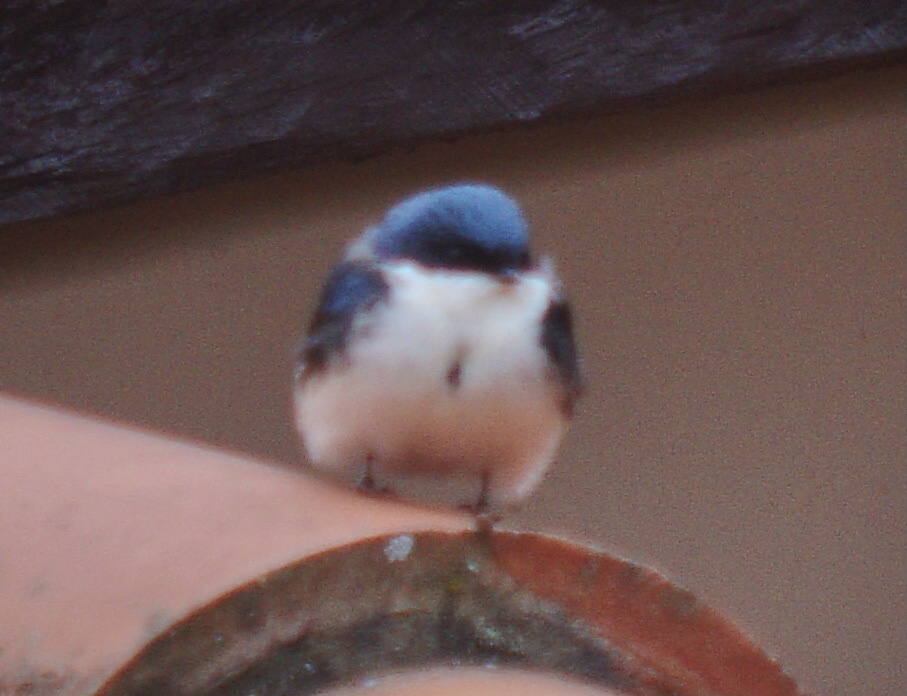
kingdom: Animalia
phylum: Chordata
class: Aves
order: Passeriformes
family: Hirundinidae
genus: Notiochelidon
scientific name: Notiochelidon cyanoleuca
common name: Blue-and-white swallow
